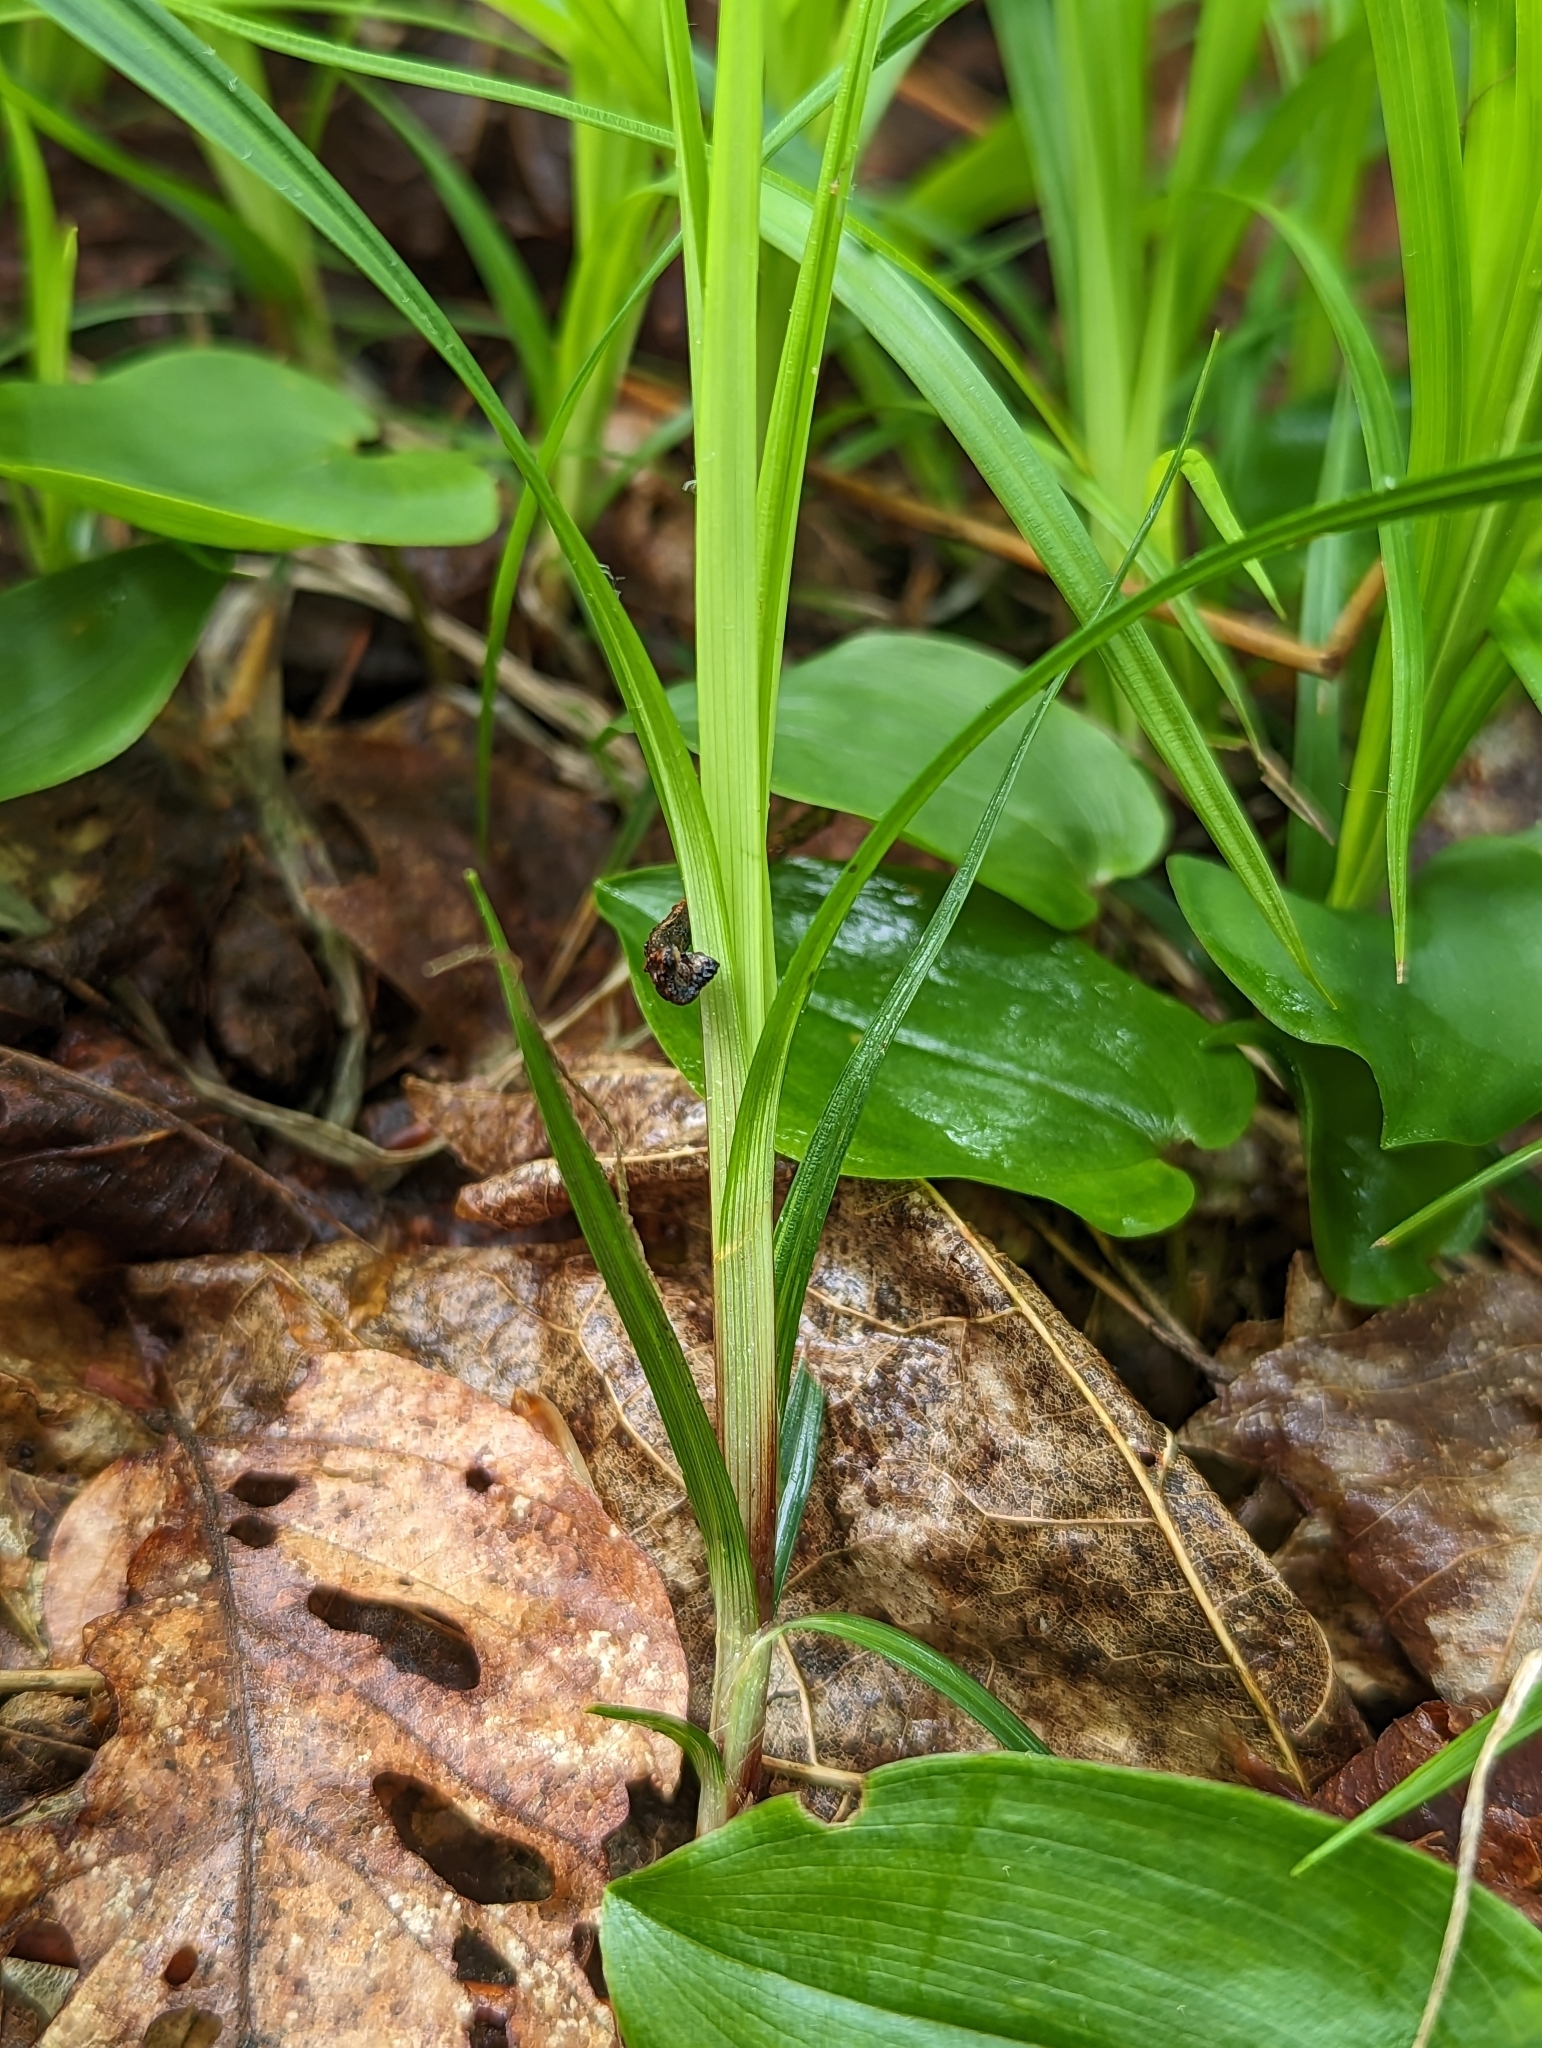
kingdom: Plantae
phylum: Tracheophyta
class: Liliopsida
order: Poales
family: Cyperaceae
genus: Carex
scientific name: Carex communis
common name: Colonial oak sedge
